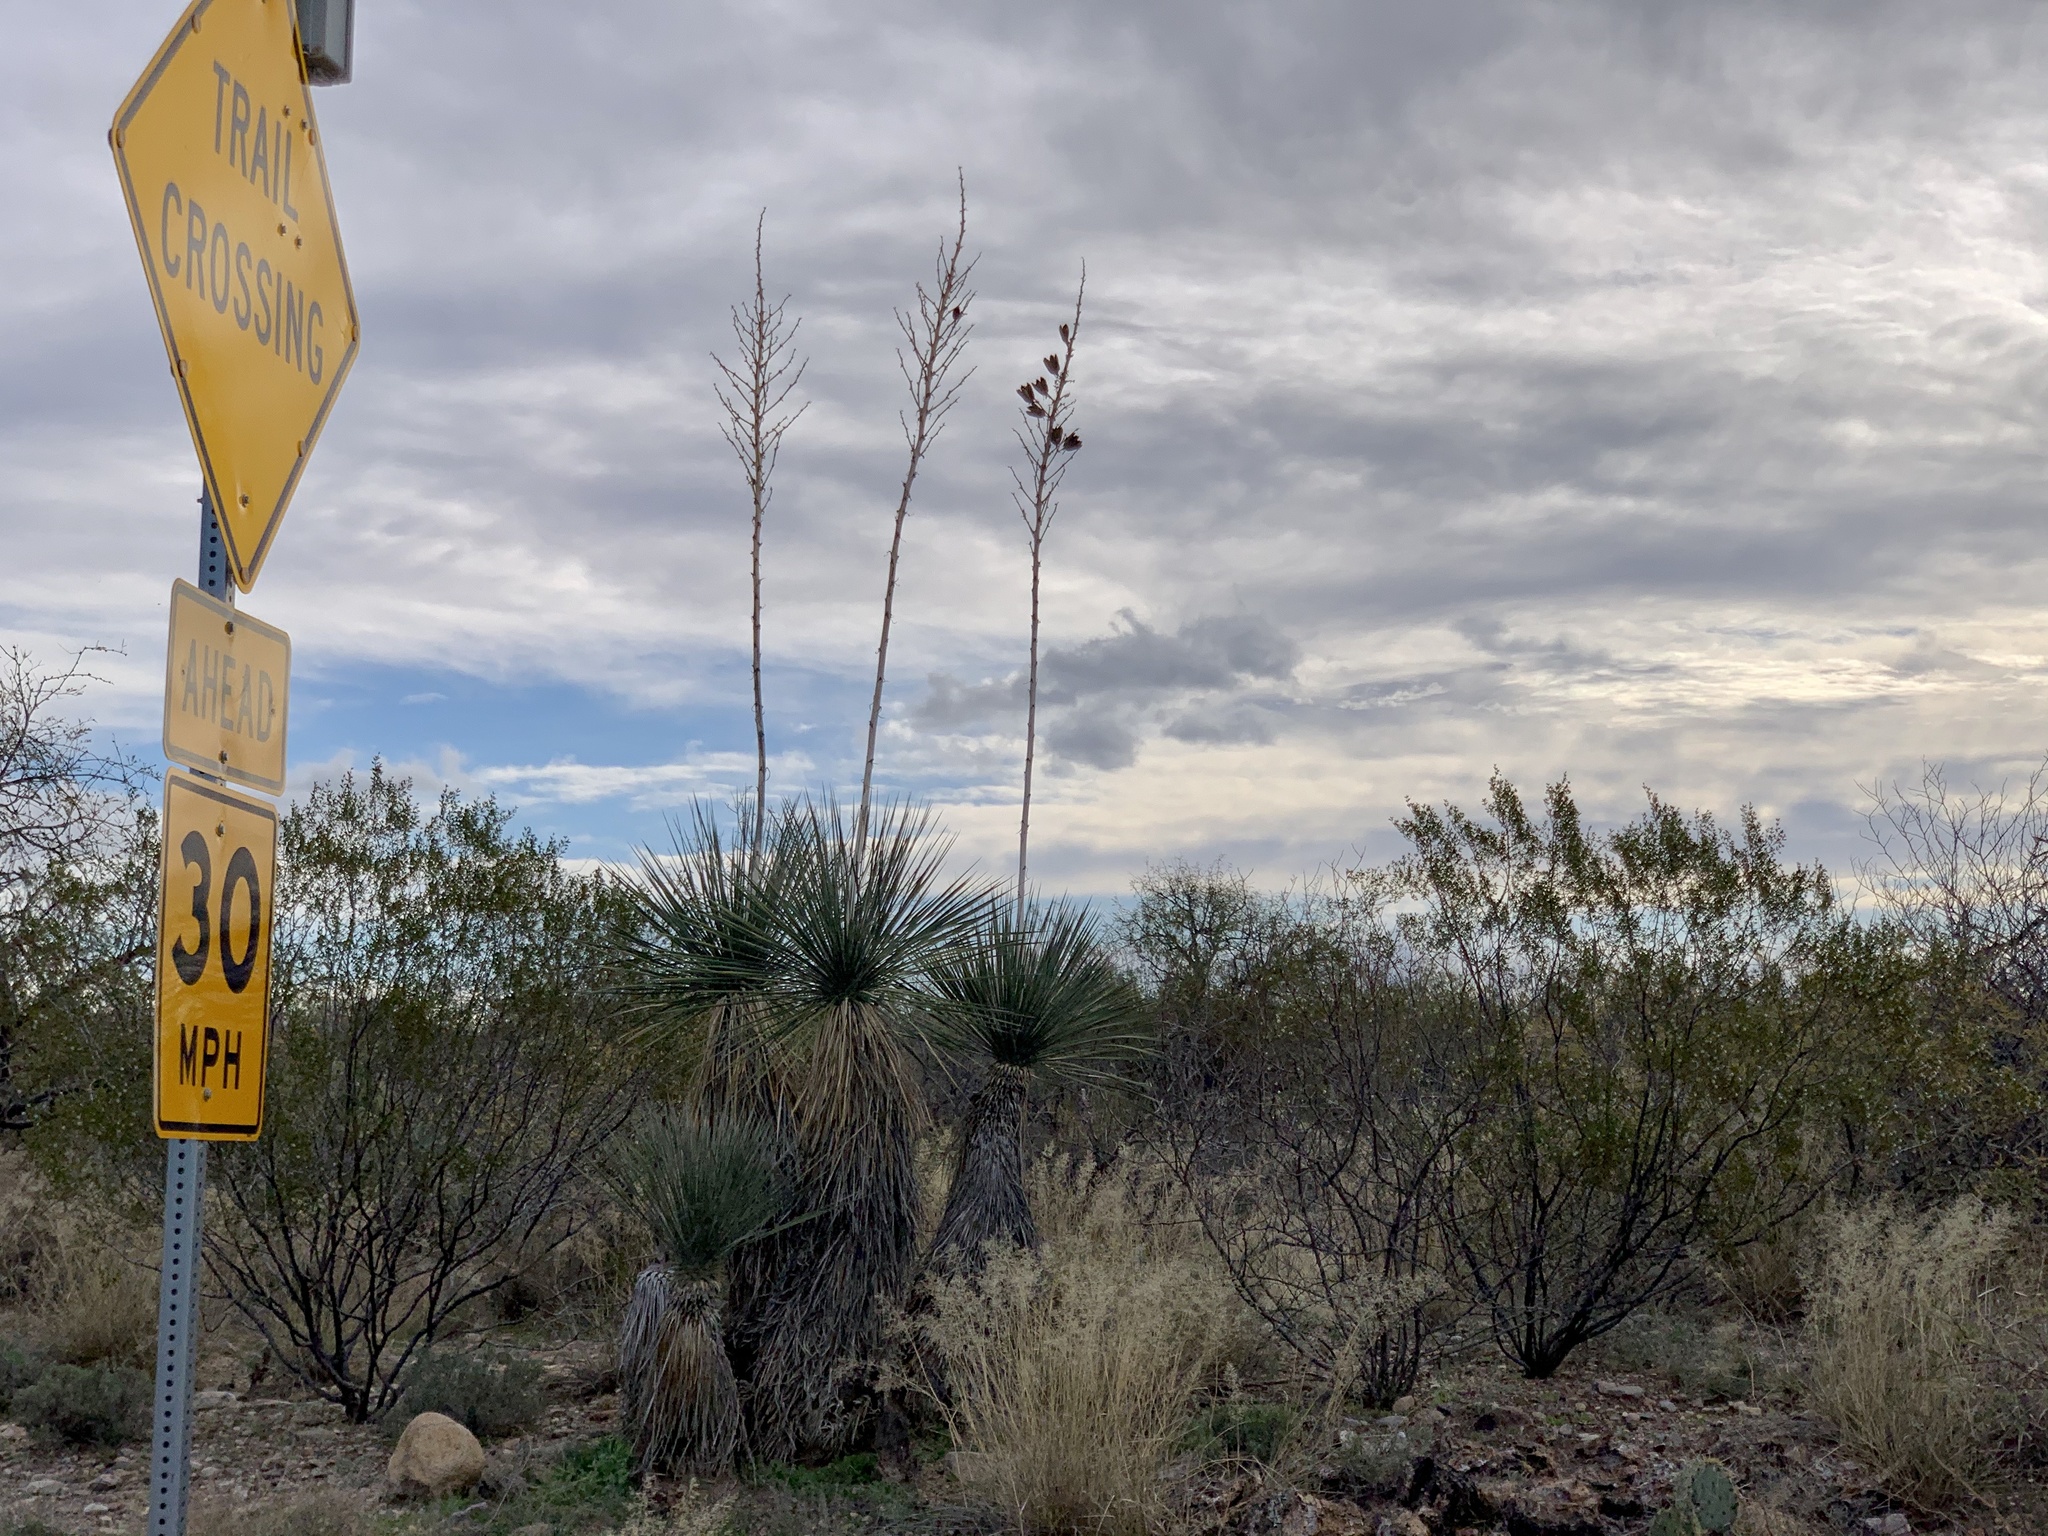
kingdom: Plantae
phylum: Tracheophyta
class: Liliopsida
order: Asparagales
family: Asparagaceae
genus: Yucca
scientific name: Yucca elata
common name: Palmella
